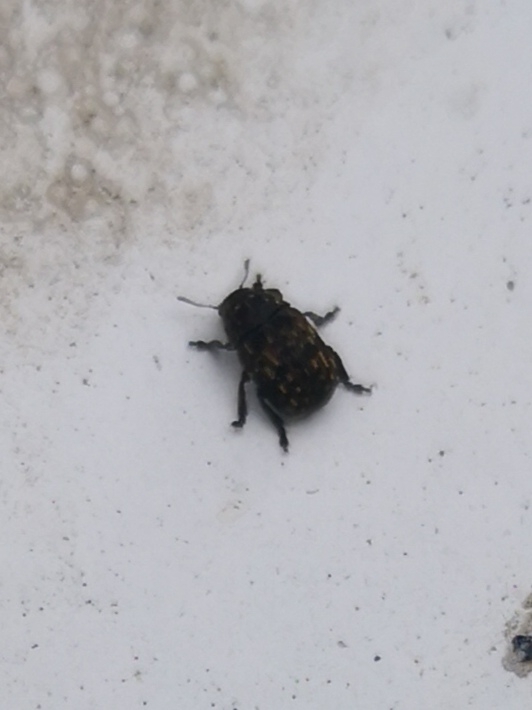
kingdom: Animalia
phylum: Arthropoda
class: Insecta
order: Coleoptera
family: Anthribidae
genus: Anthribus
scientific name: Anthribus nebulosus
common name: Fungus weevil
